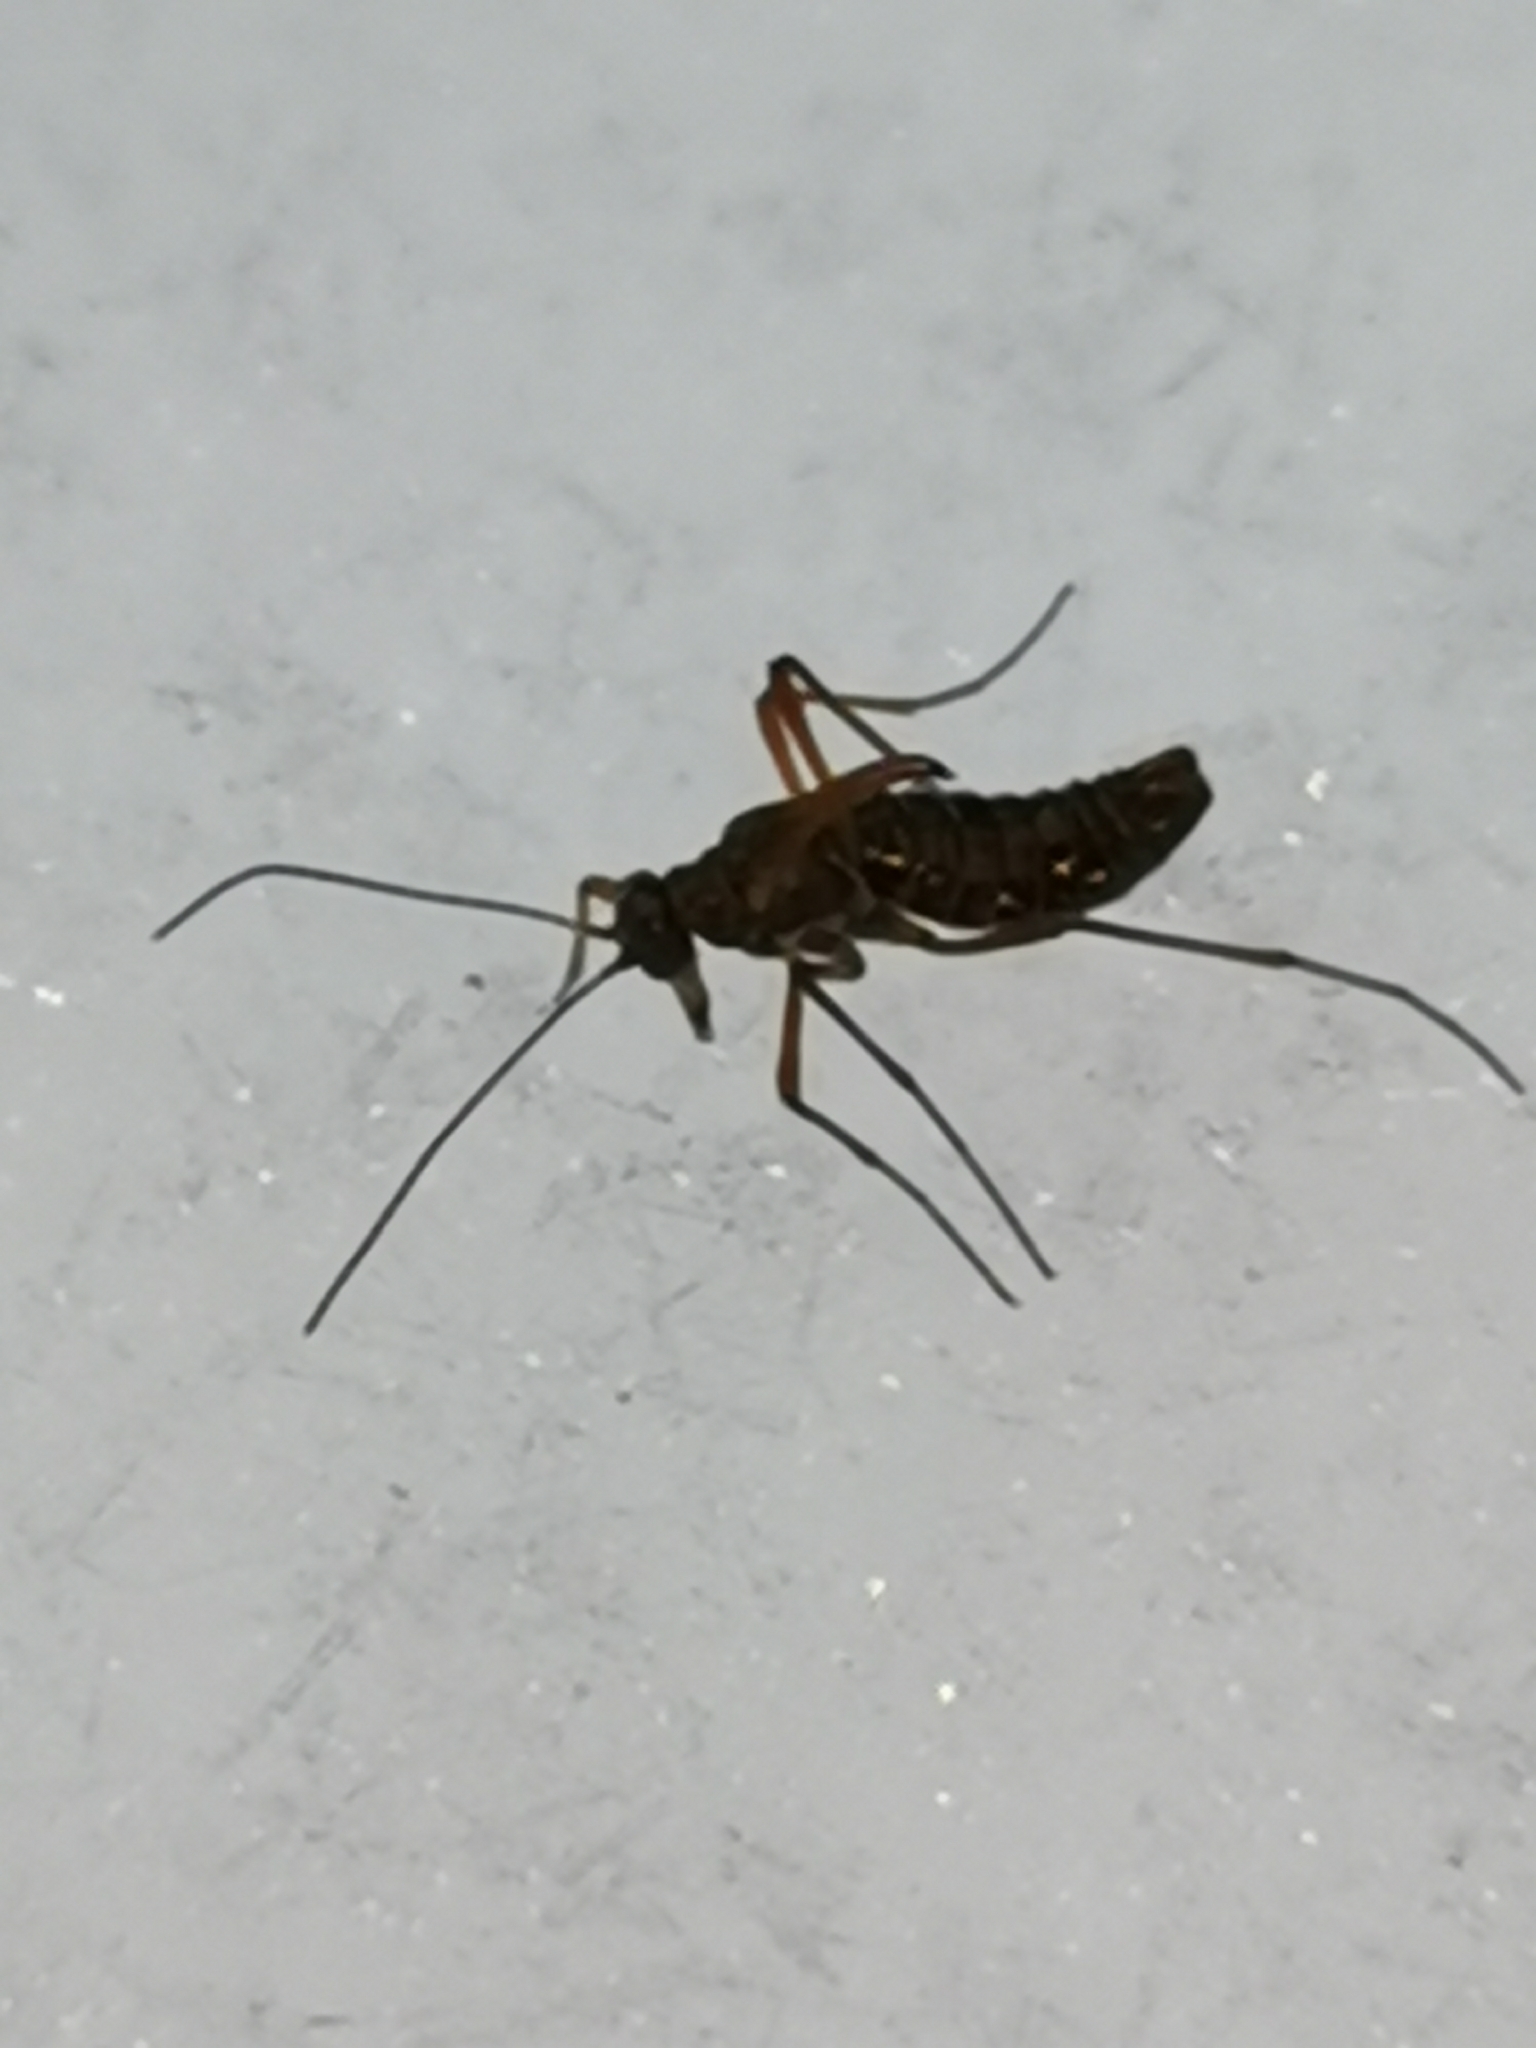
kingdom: Animalia
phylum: Arthropoda
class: Insecta
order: Mecoptera
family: Boreidae
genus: Boreus
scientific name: Boreus westwoodi
